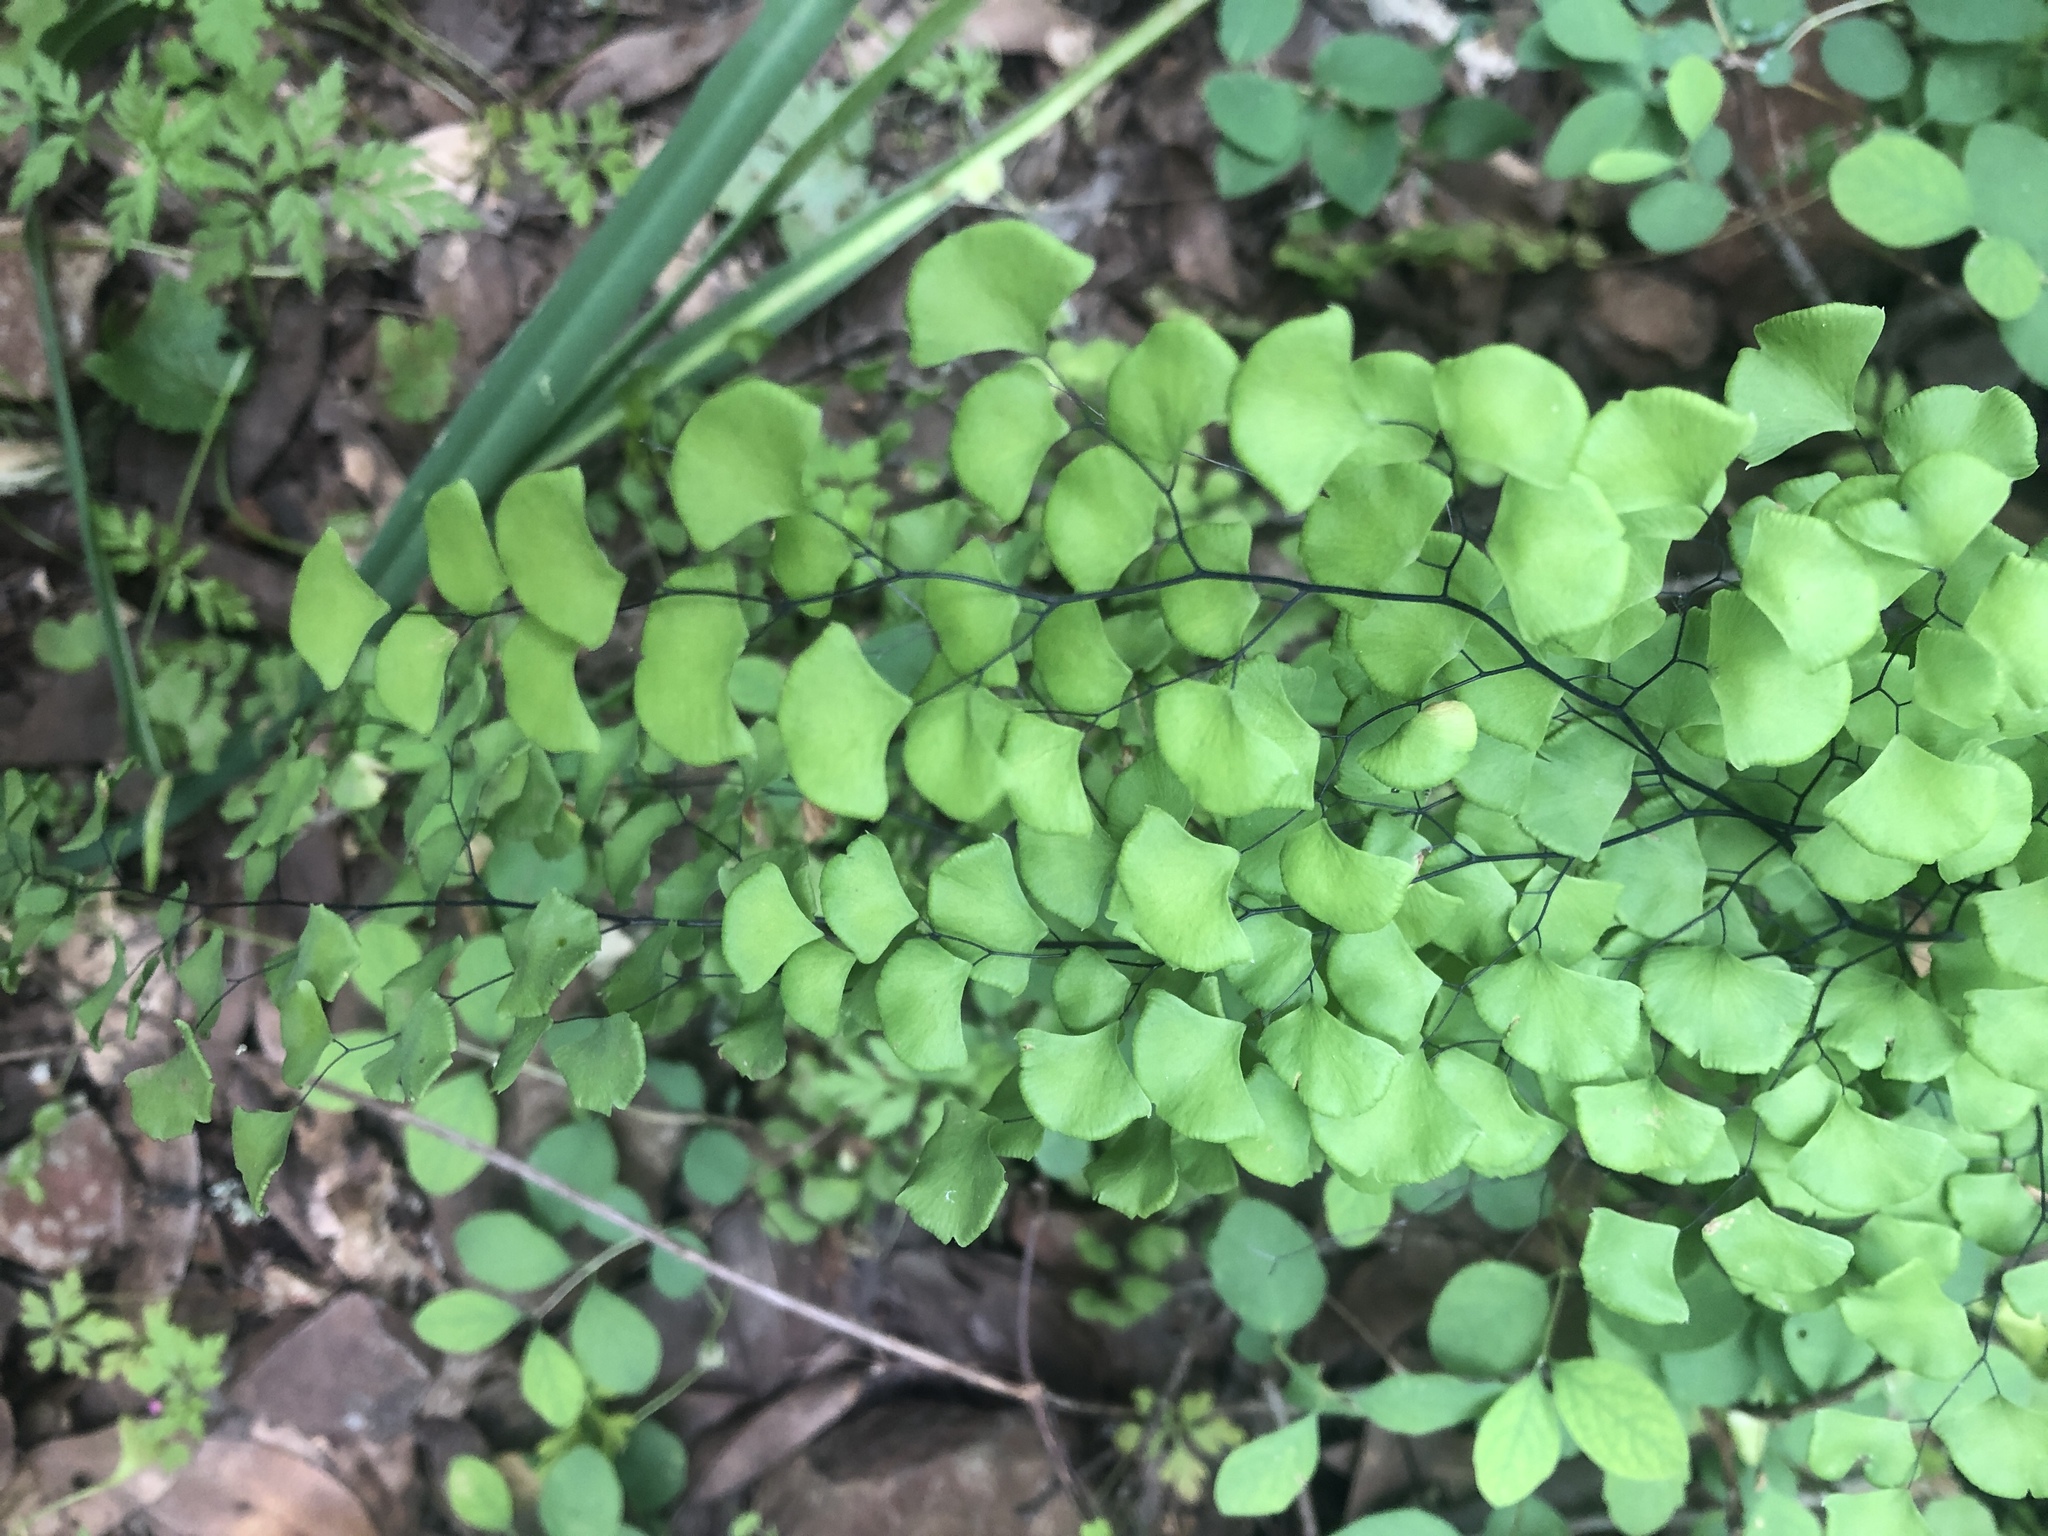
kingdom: Plantae
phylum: Tracheophyta
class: Polypodiopsida
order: Polypodiales
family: Pteridaceae
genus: Adiantum
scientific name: Adiantum jordanii
